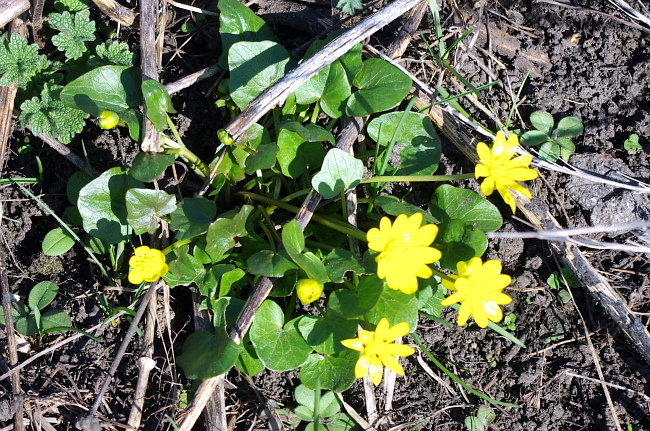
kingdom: Plantae
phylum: Tracheophyta
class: Magnoliopsida
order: Ranunculales
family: Ranunculaceae
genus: Ficaria
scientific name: Ficaria verna
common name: Lesser celandine
